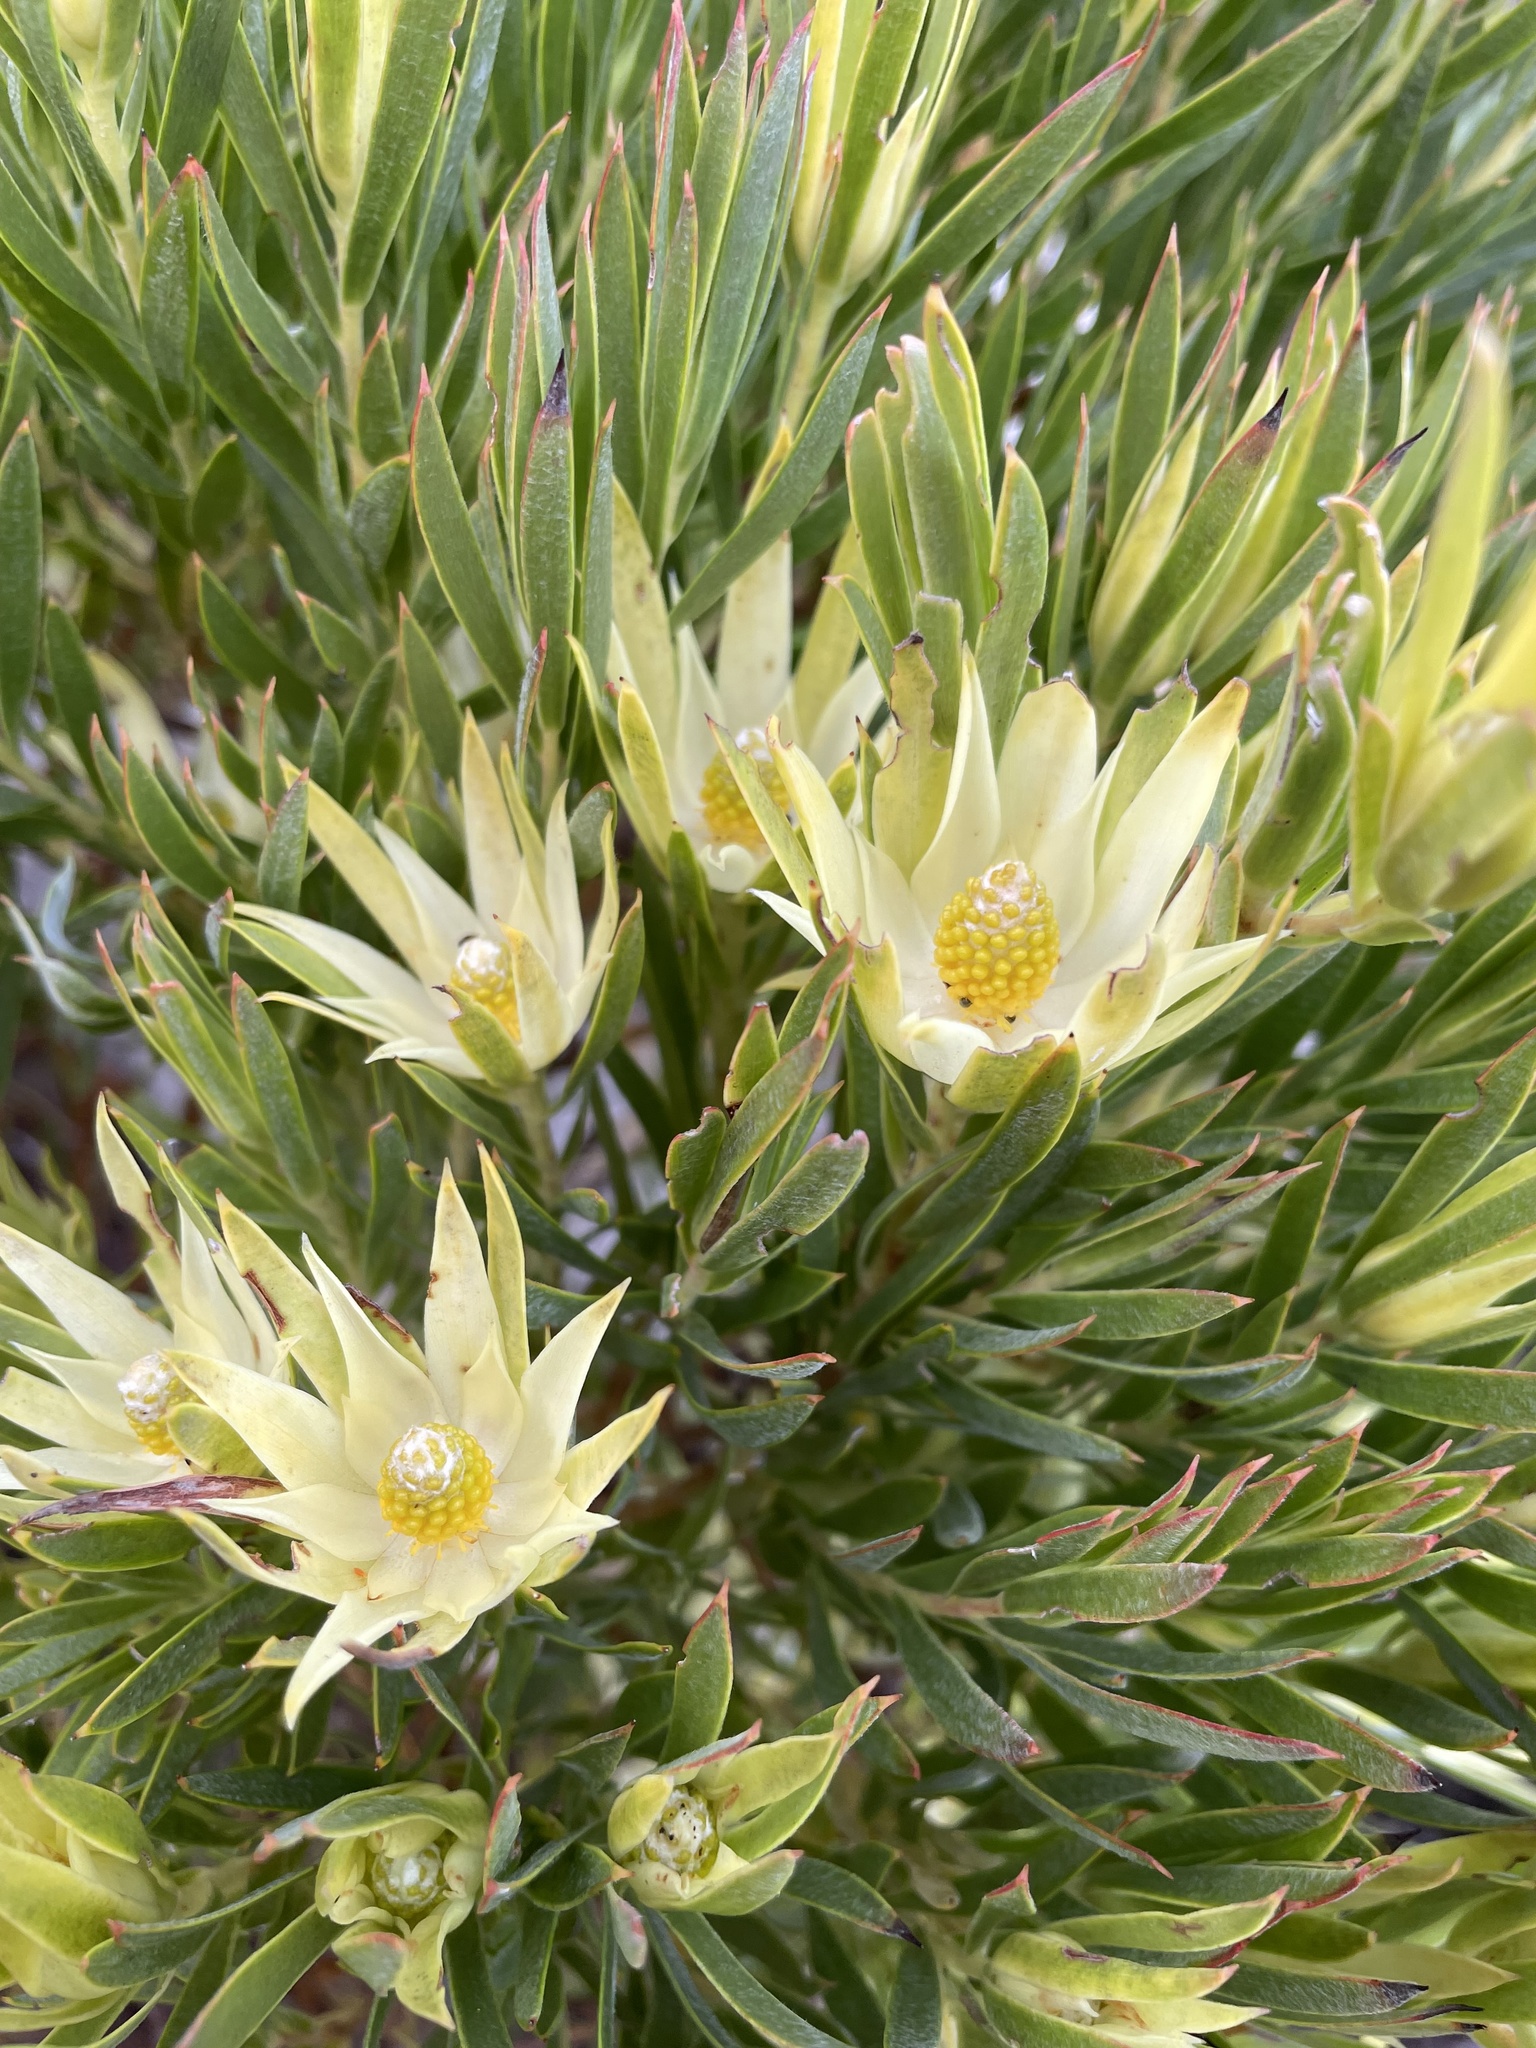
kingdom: Plantae
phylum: Tracheophyta
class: Magnoliopsida
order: Proteales
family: Proteaceae
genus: Leucadendron
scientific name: Leucadendron xanthoconus
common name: Sickle-leaf conebush
